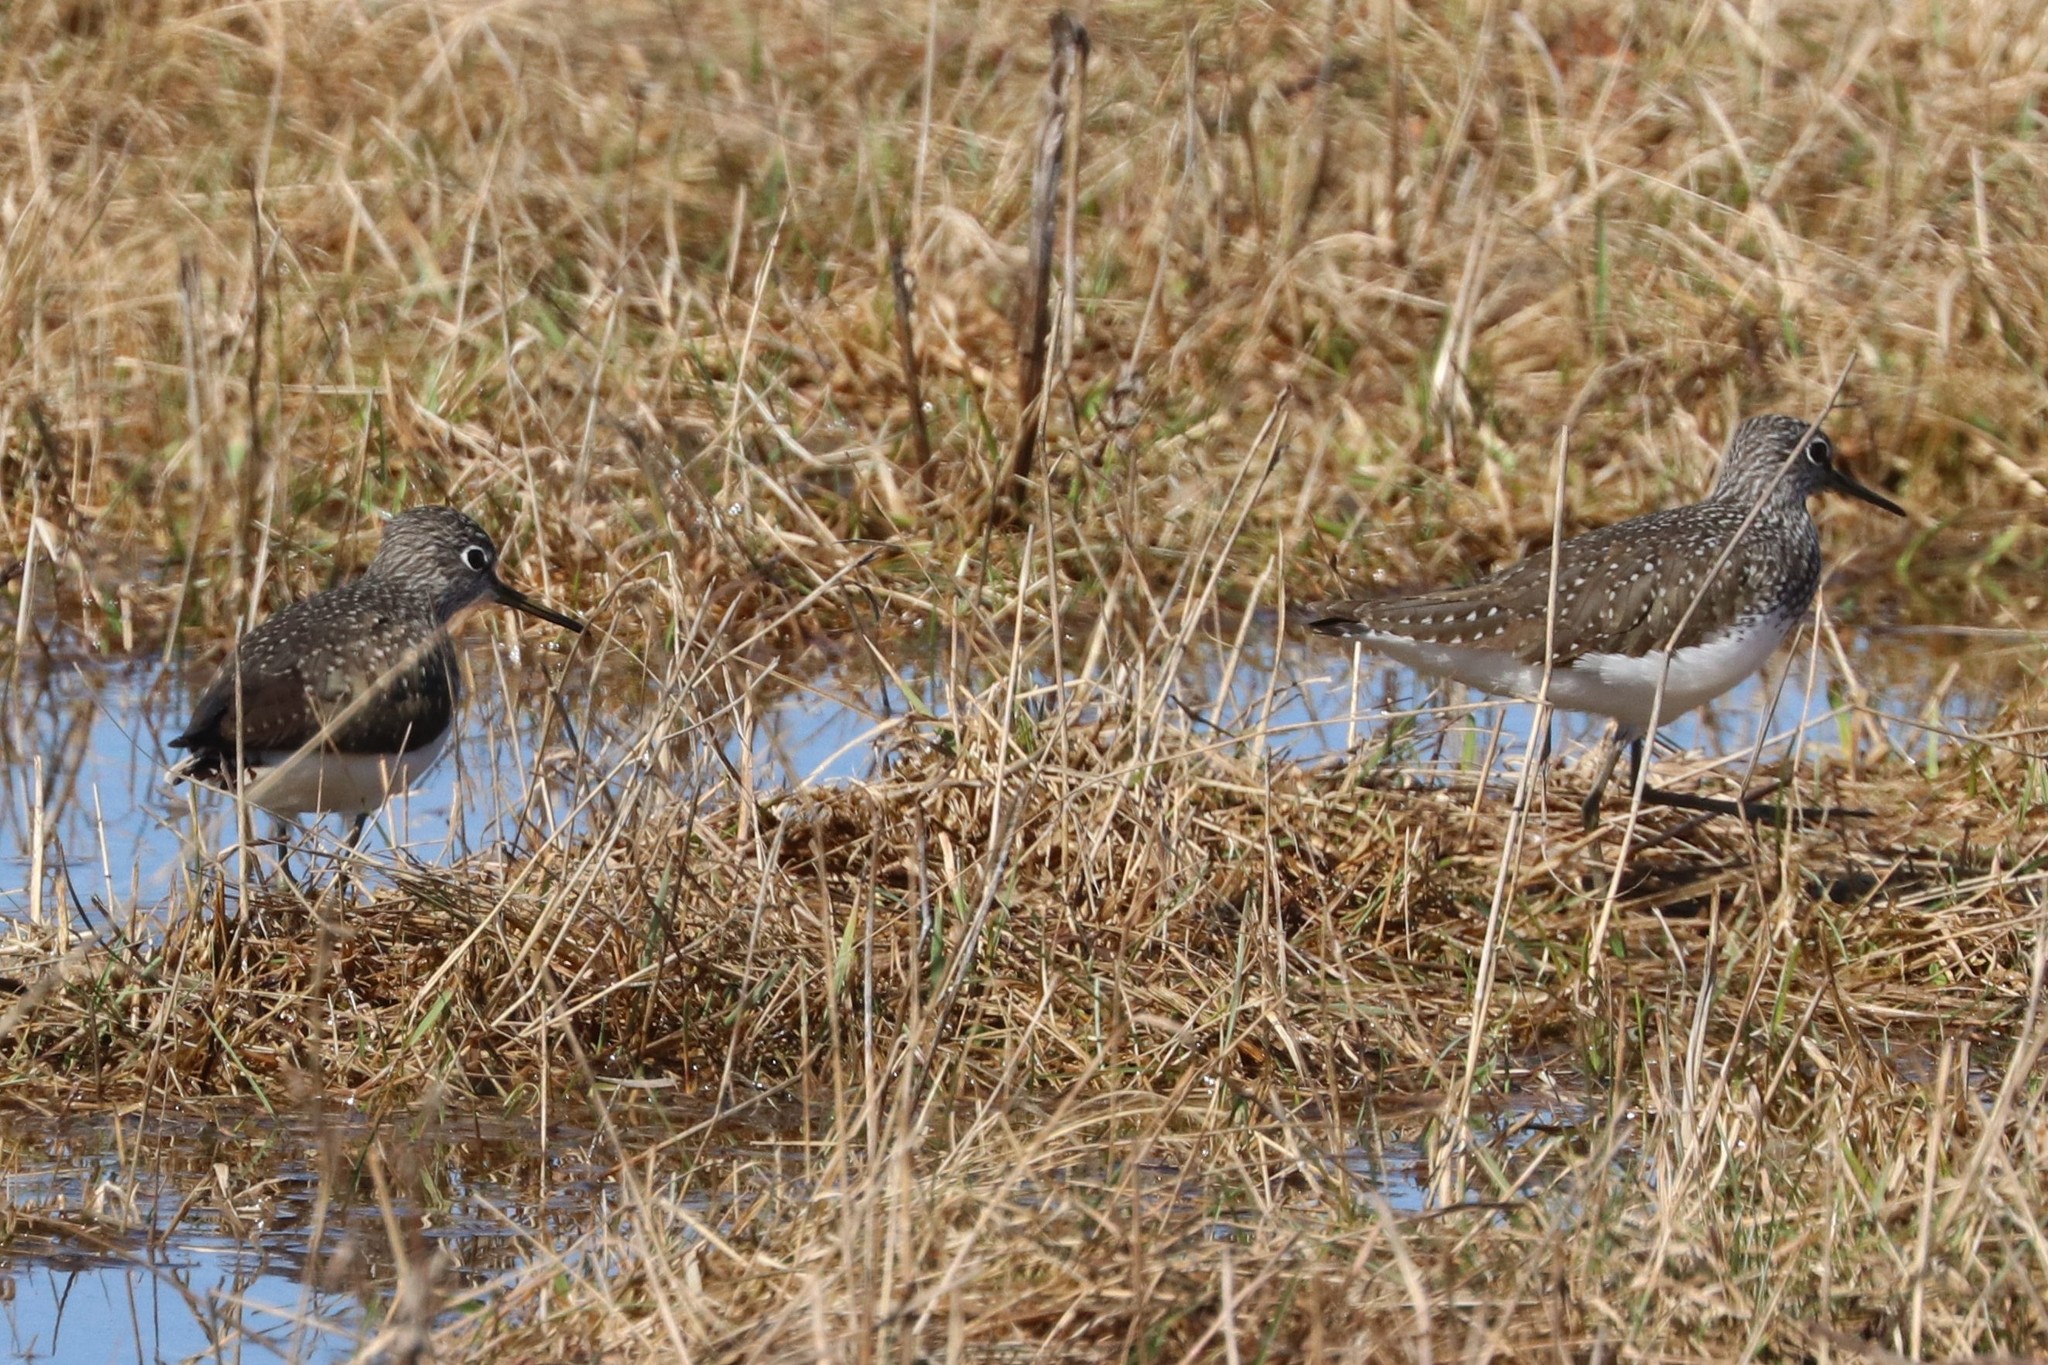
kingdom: Animalia
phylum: Chordata
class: Aves
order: Charadriiformes
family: Scolopacidae
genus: Tringa
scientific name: Tringa ochropus
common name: Green sandpiper
